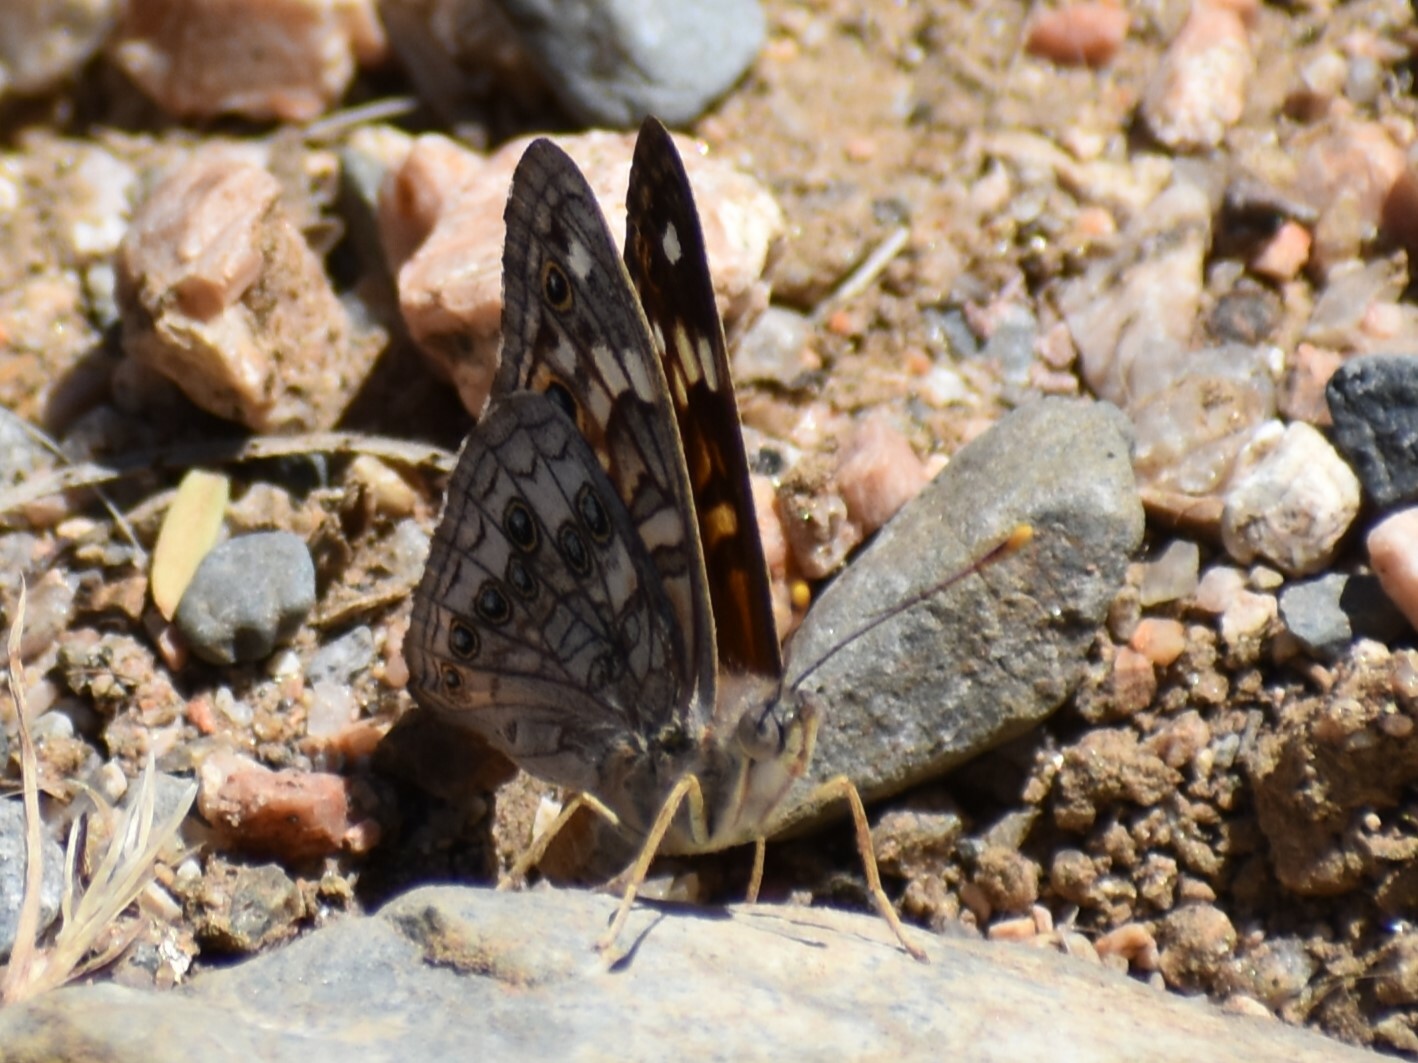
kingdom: Animalia
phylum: Arthropoda
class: Insecta
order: Lepidoptera
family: Nymphalidae
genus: Asterocampa
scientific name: Asterocampa leilia
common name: Empress leilia
